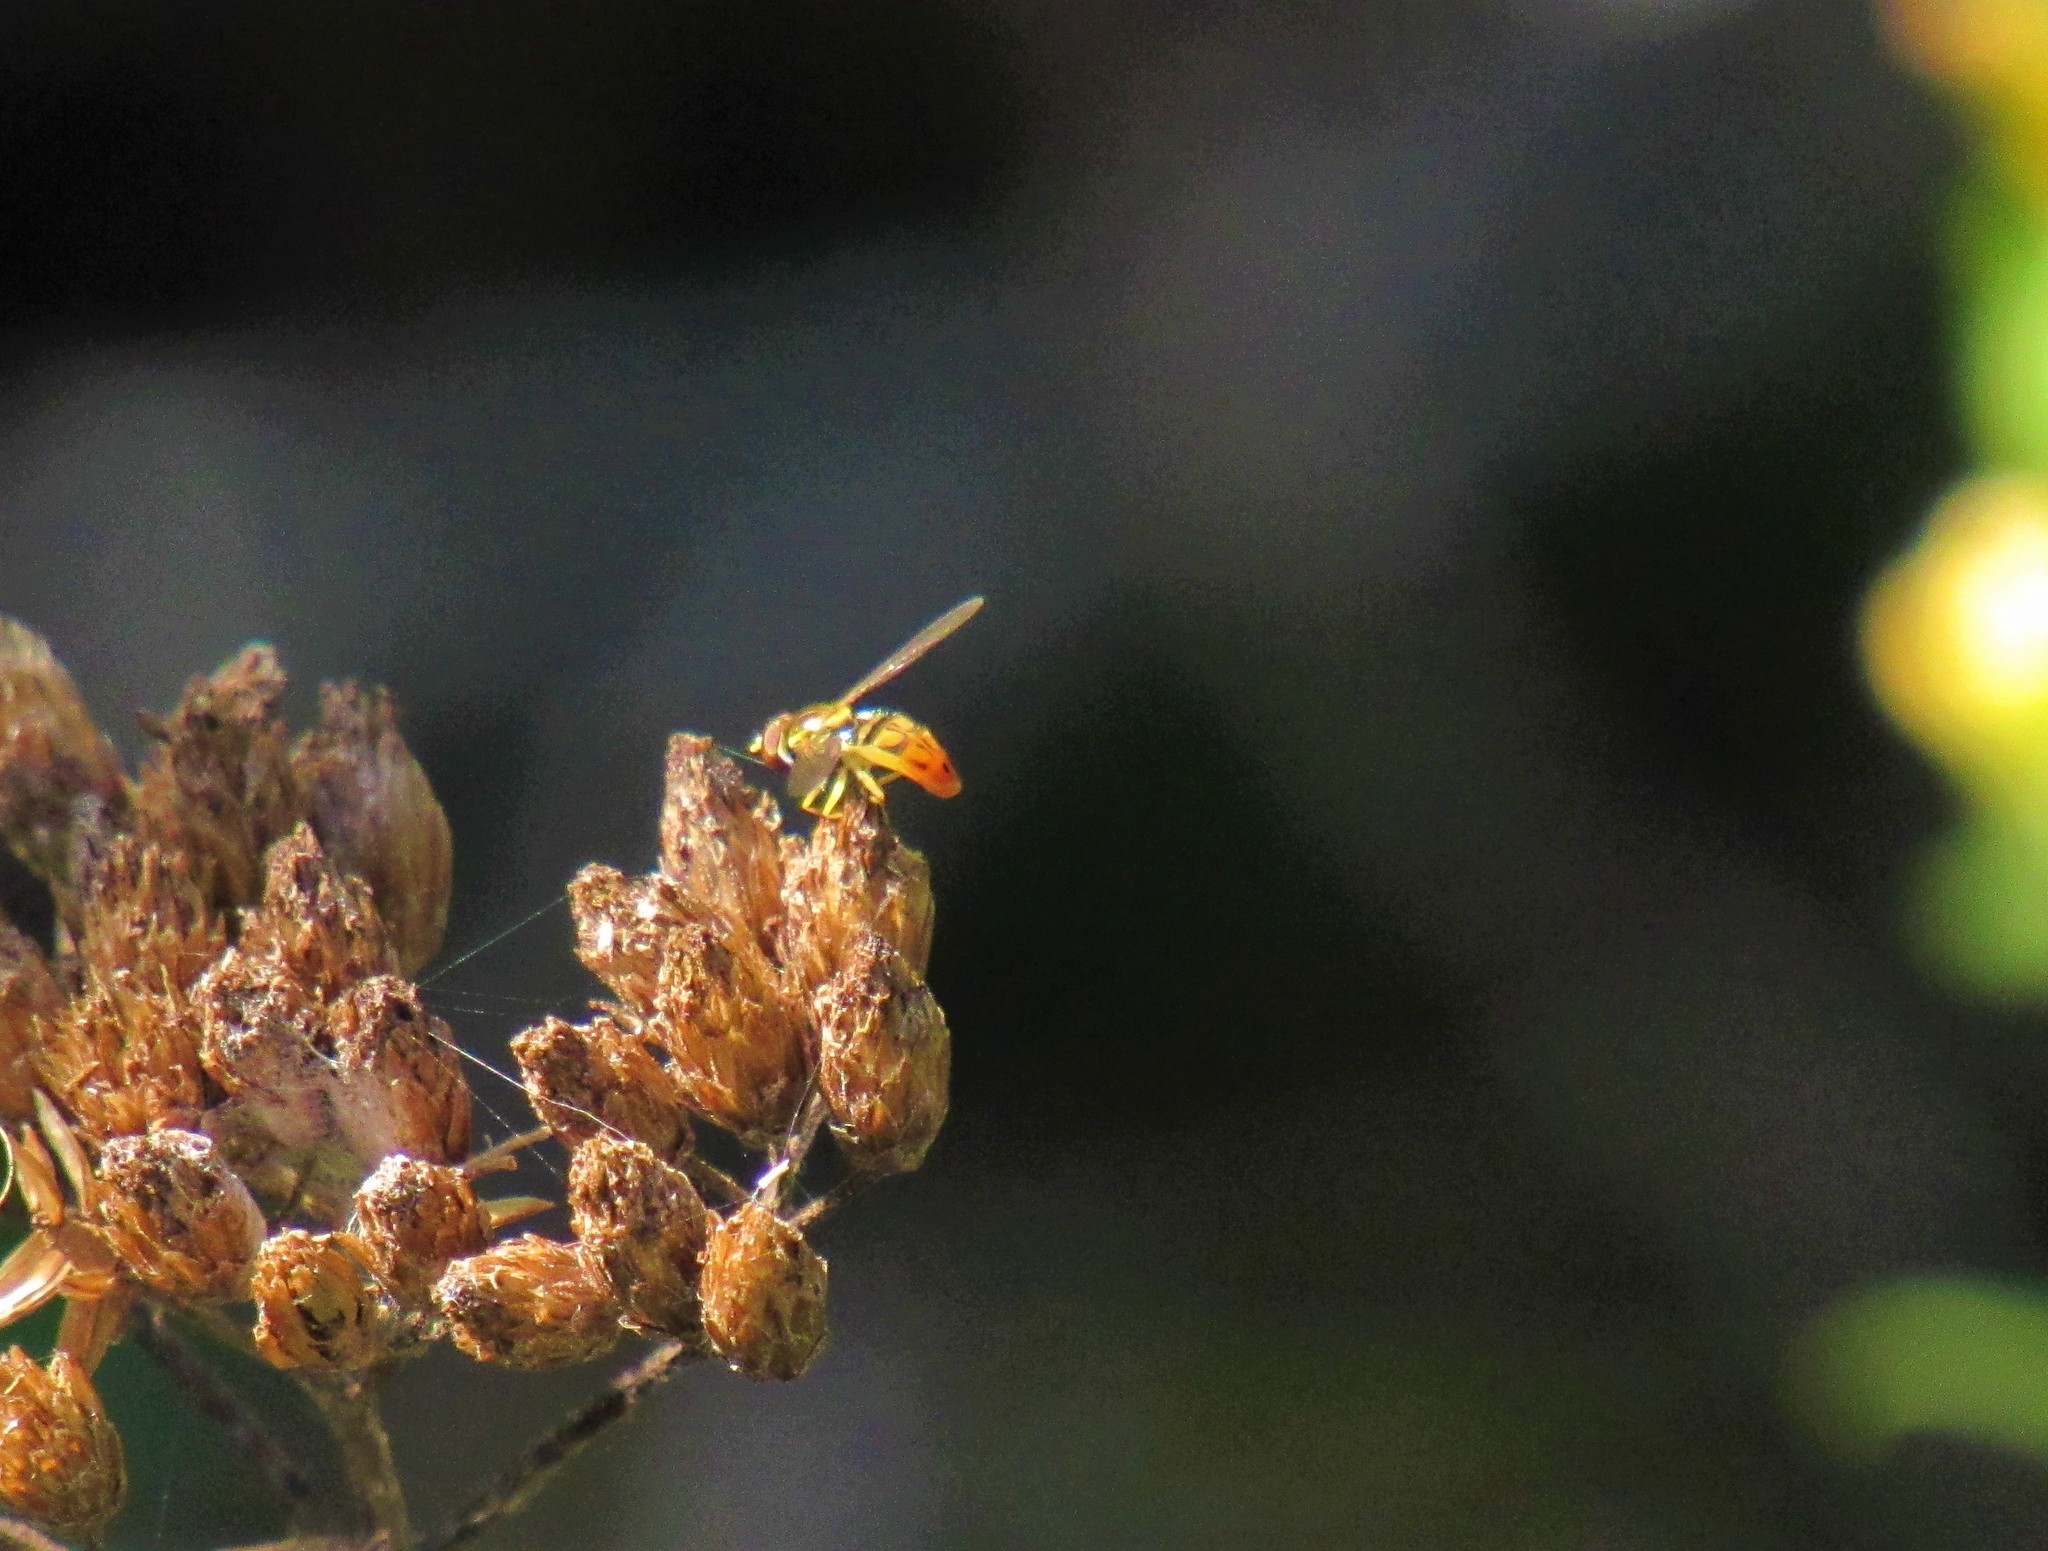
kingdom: Animalia
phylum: Arthropoda
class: Insecta
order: Diptera
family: Syrphidae
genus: Toxomerus
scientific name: Toxomerus marginatus
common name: Syrphid fly
